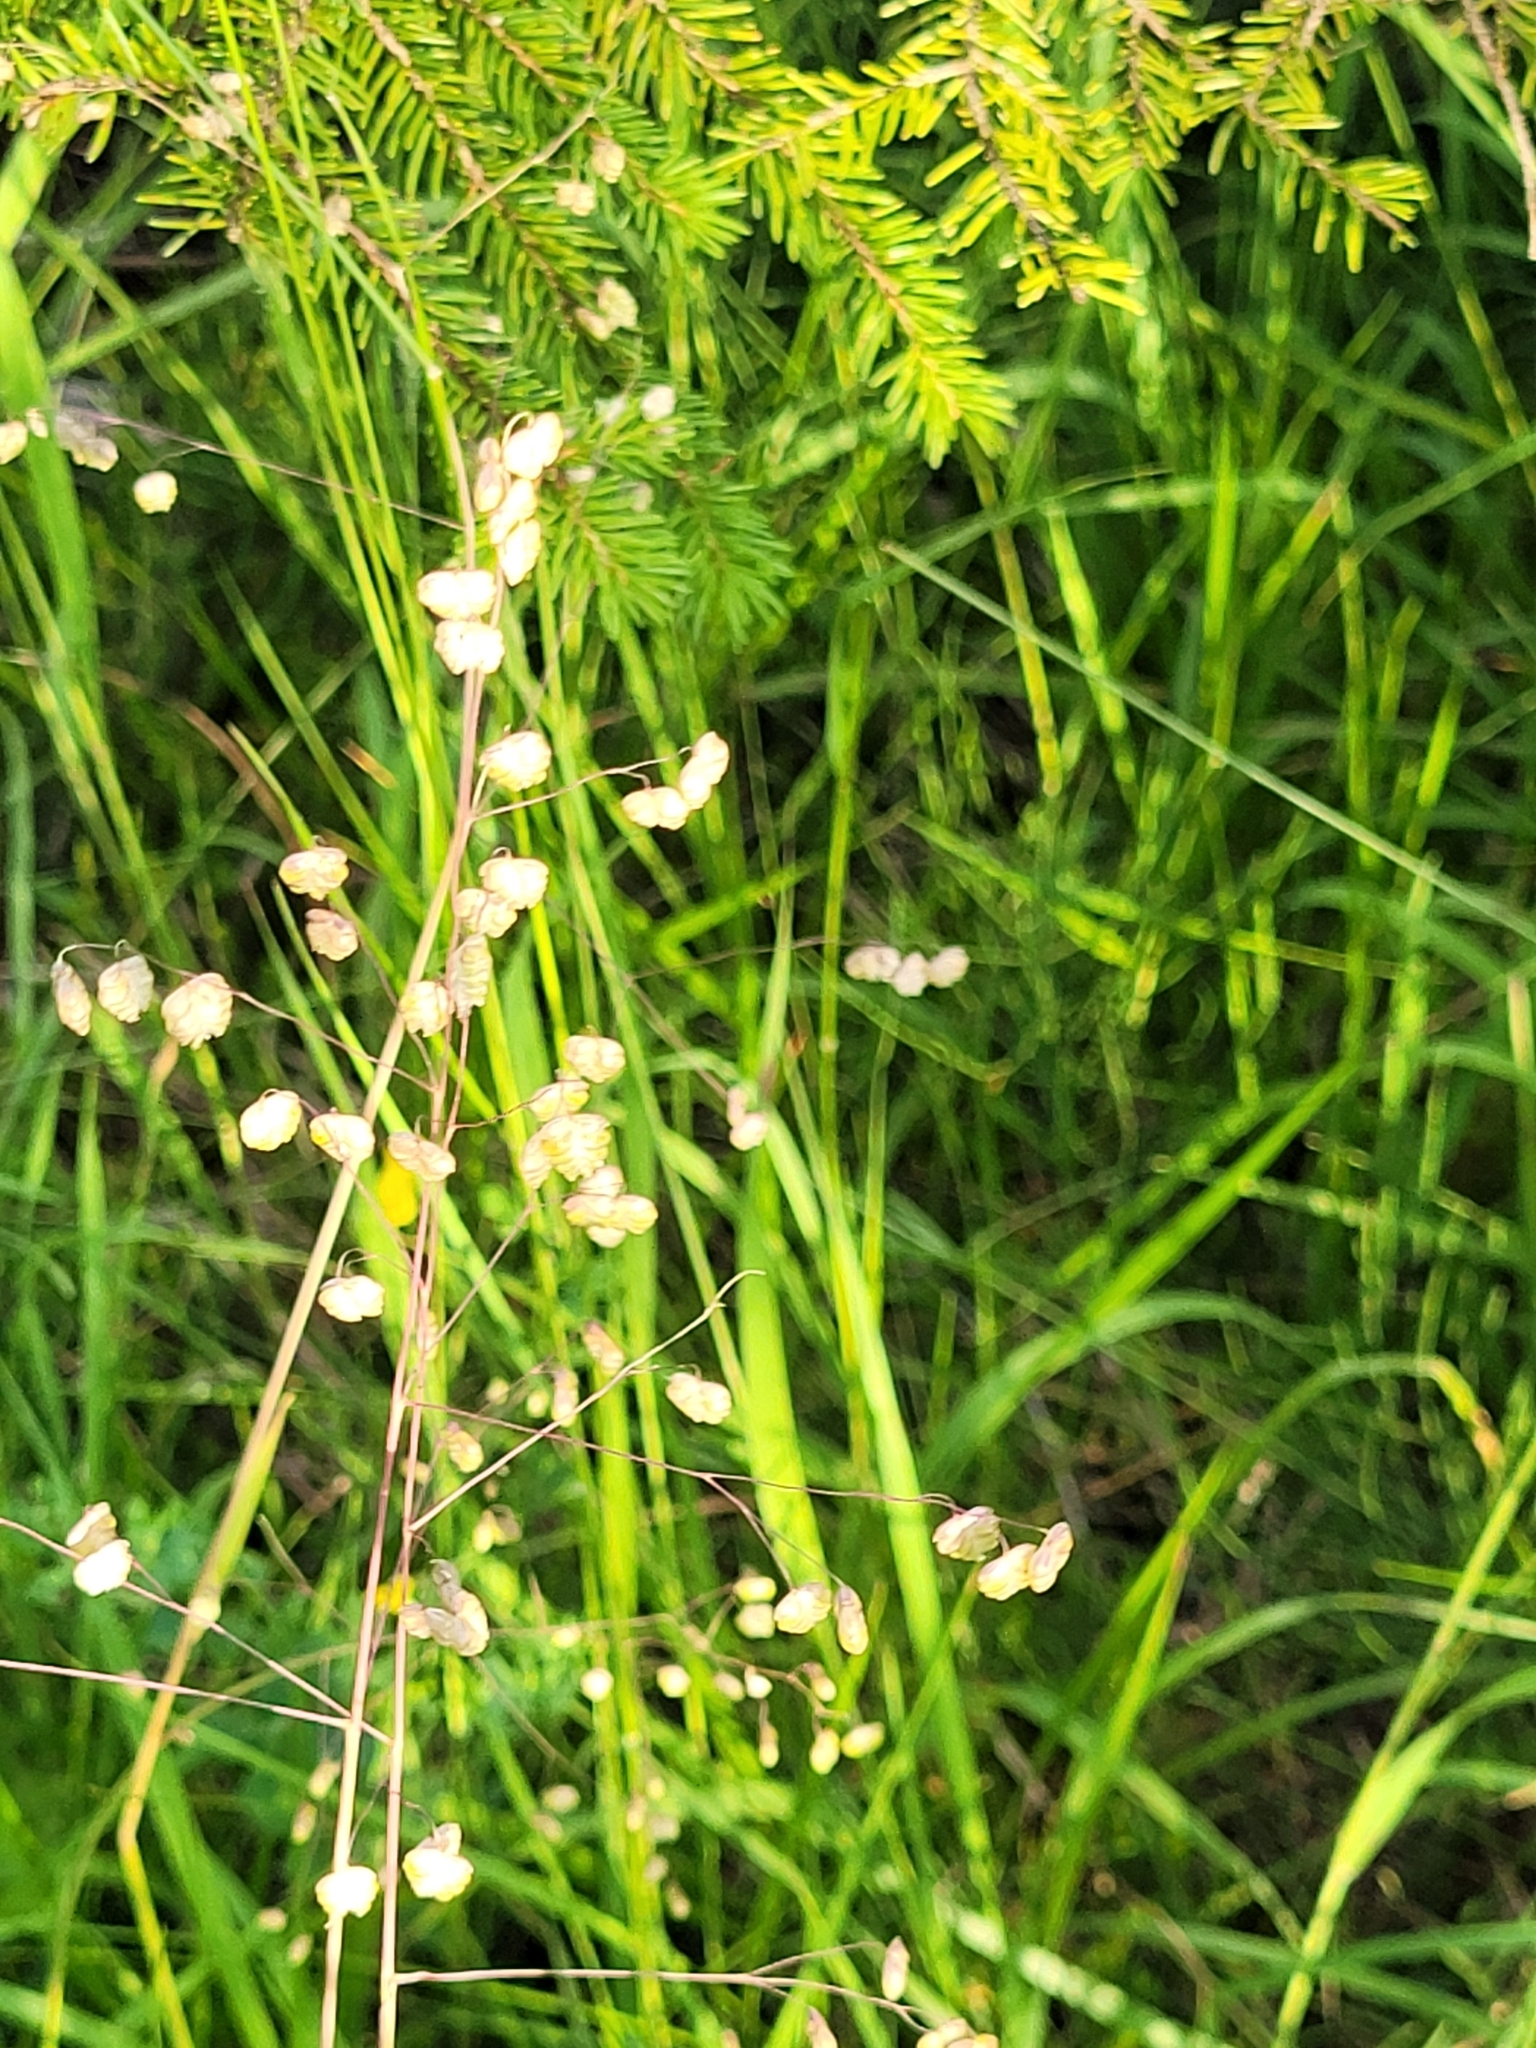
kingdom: Plantae
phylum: Tracheophyta
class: Liliopsida
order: Poales
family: Poaceae
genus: Briza
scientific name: Briza media
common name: Quaking grass
